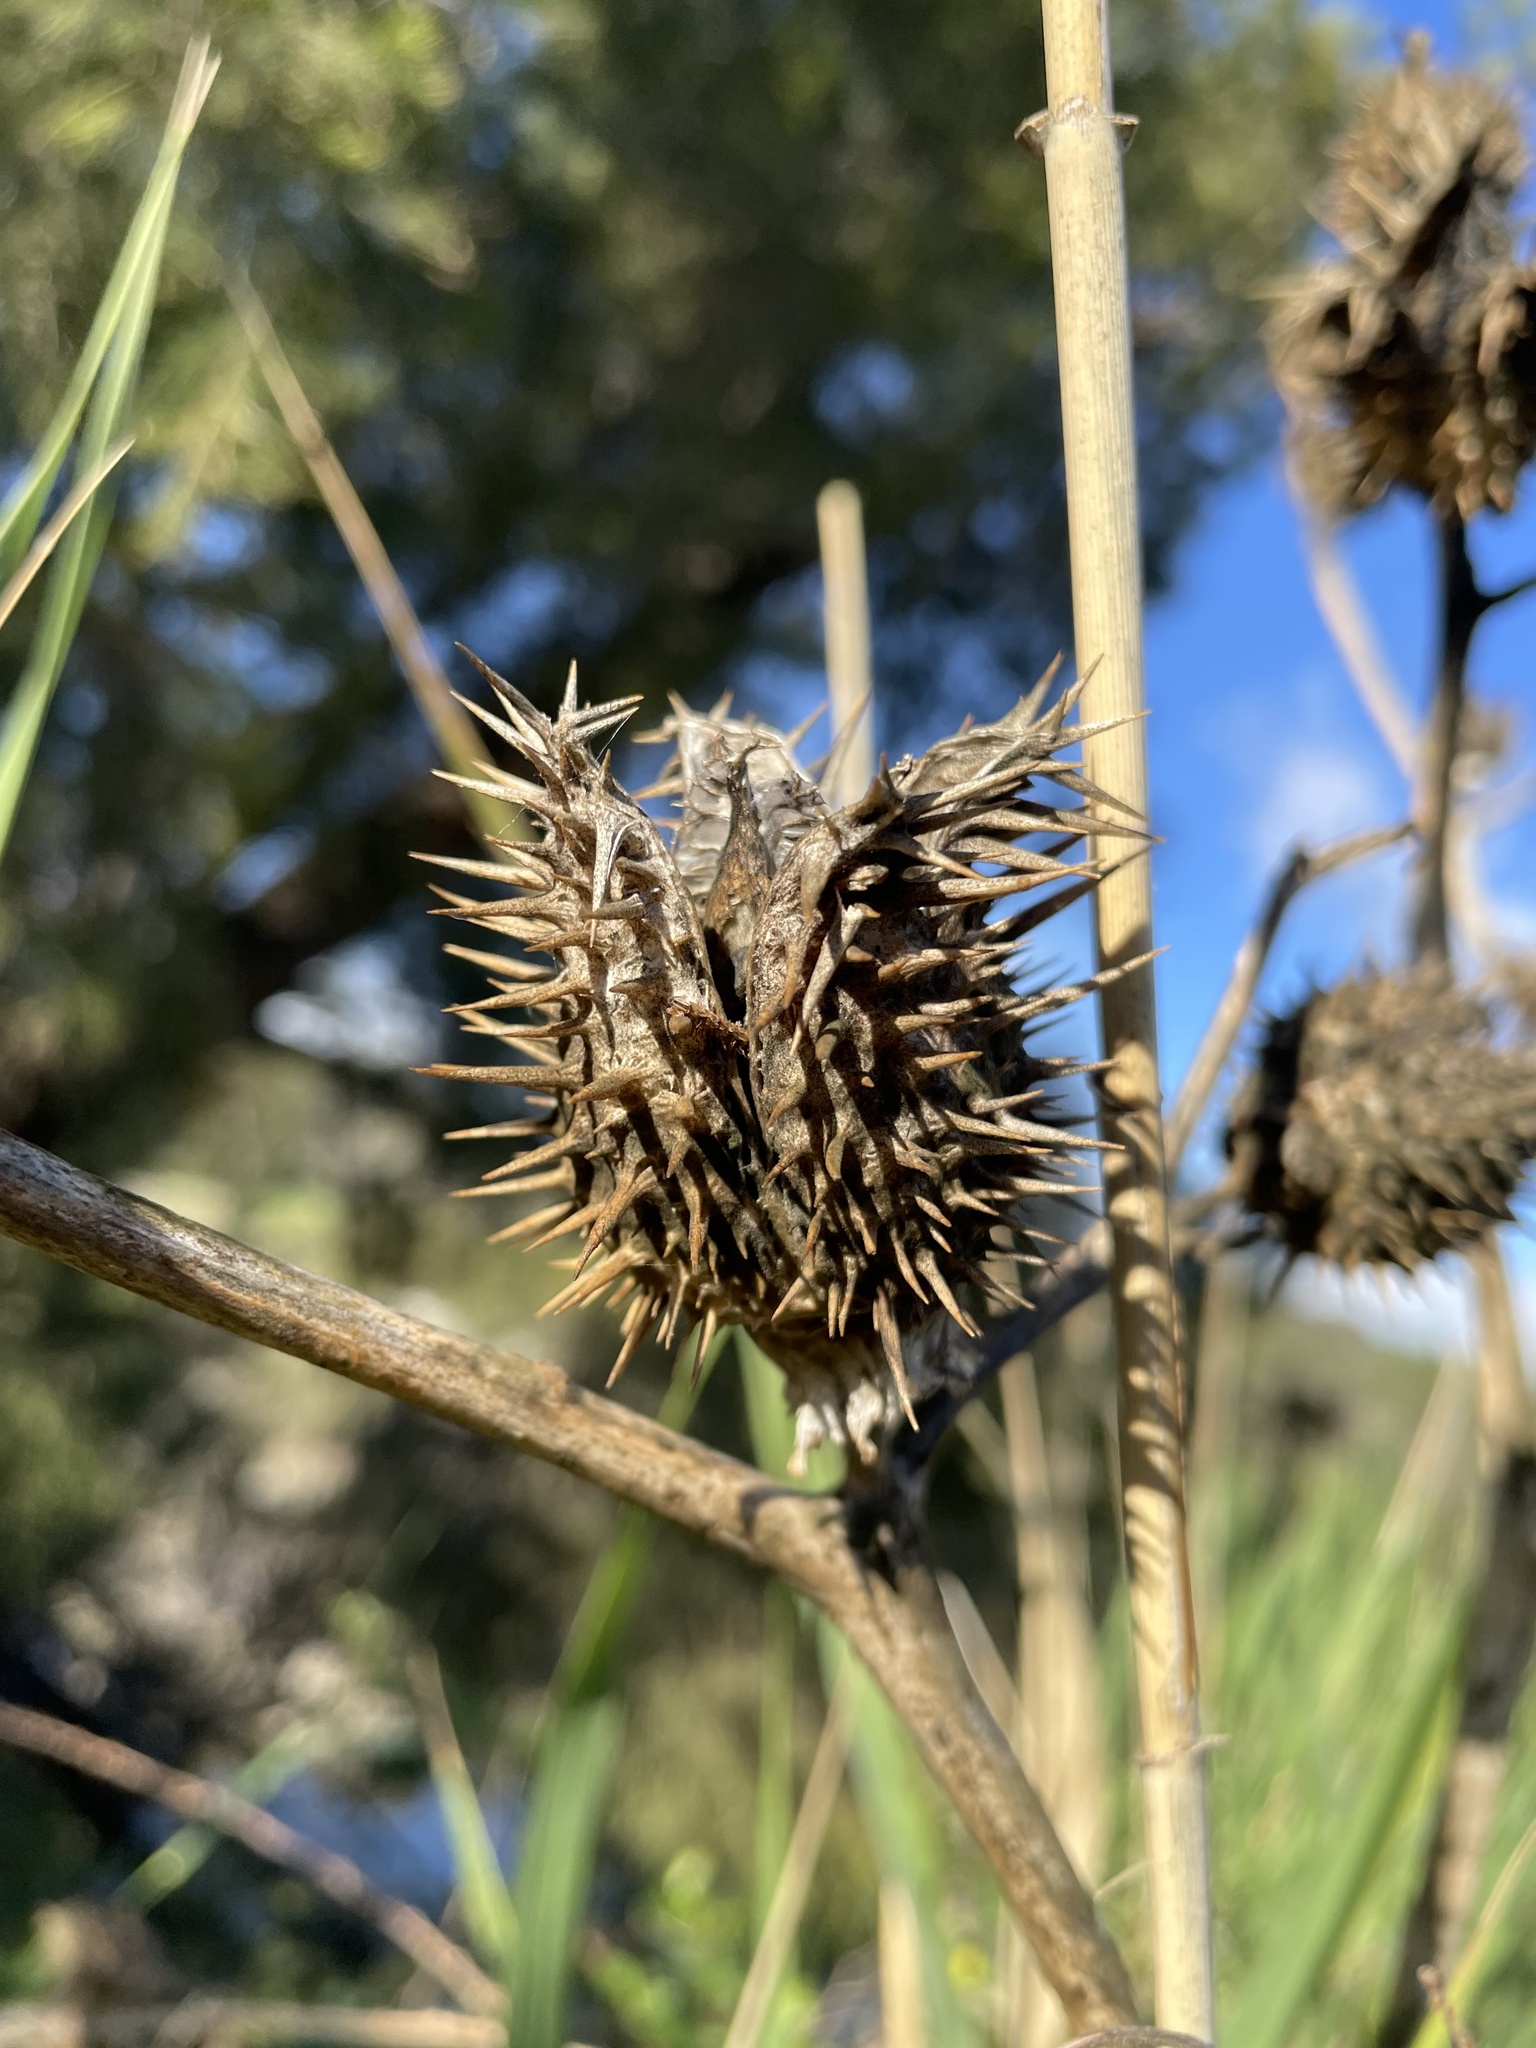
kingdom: Plantae
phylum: Tracheophyta
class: Magnoliopsida
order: Solanales
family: Solanaceae
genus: Datura
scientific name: Datura stramonium
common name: Thorn-apple
